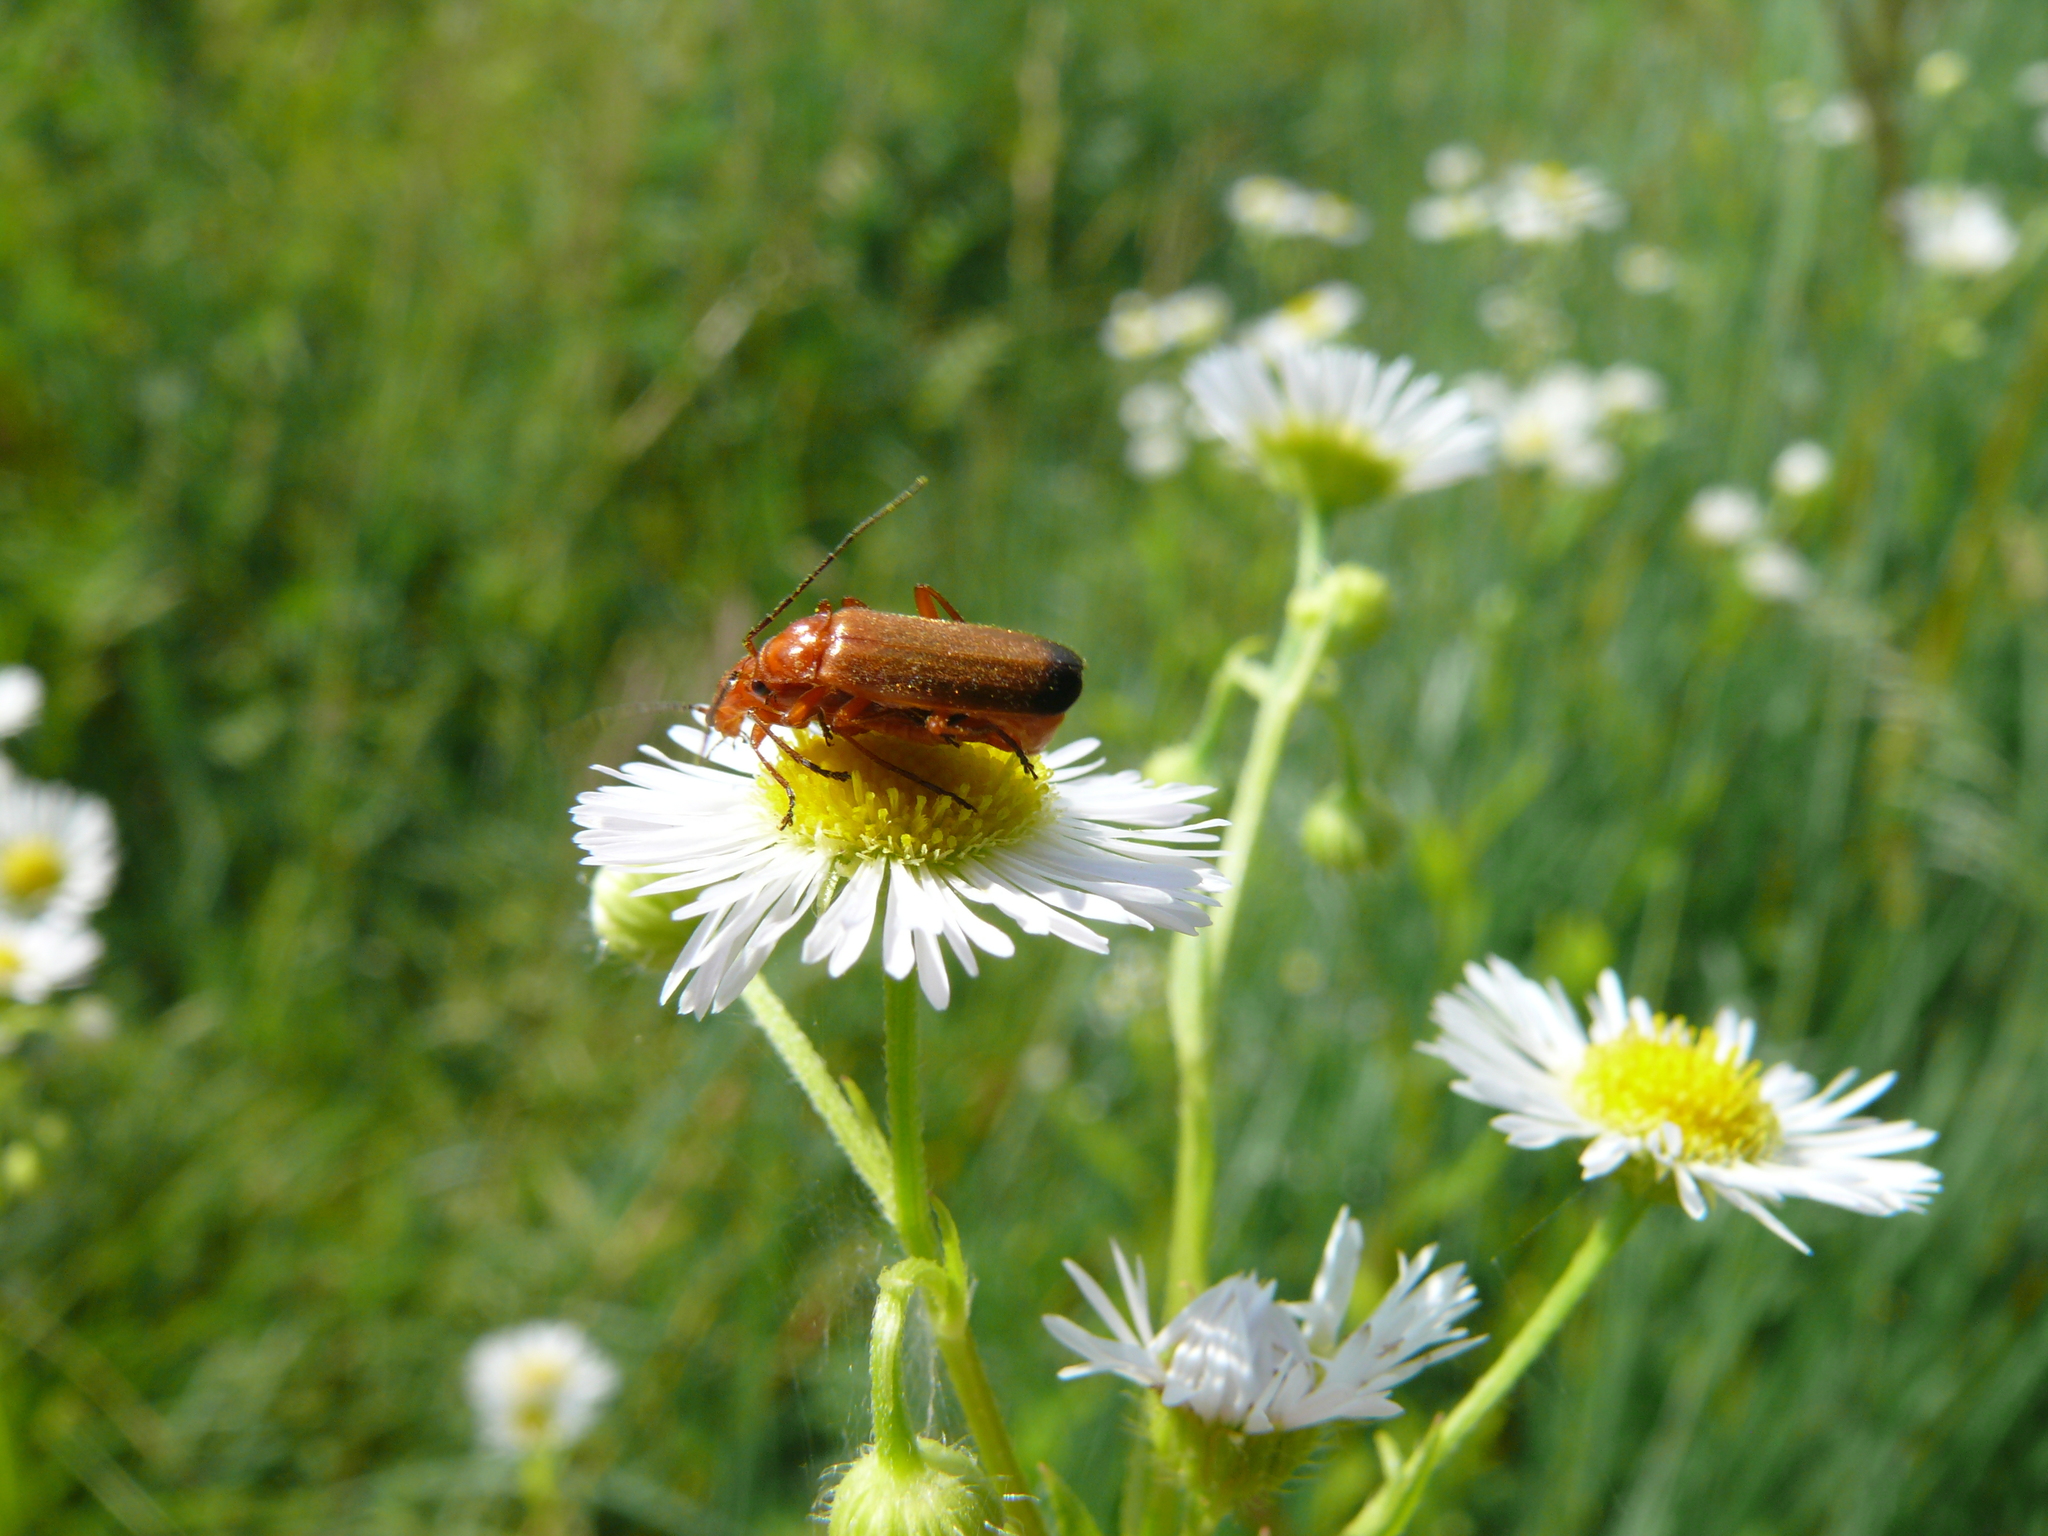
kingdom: Animalia
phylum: Arthropoda
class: Insecta
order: Coleoptera
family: Cantharidae
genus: Rhagonycha
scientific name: Rhagonycha fulva
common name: Common red soldier beetle
